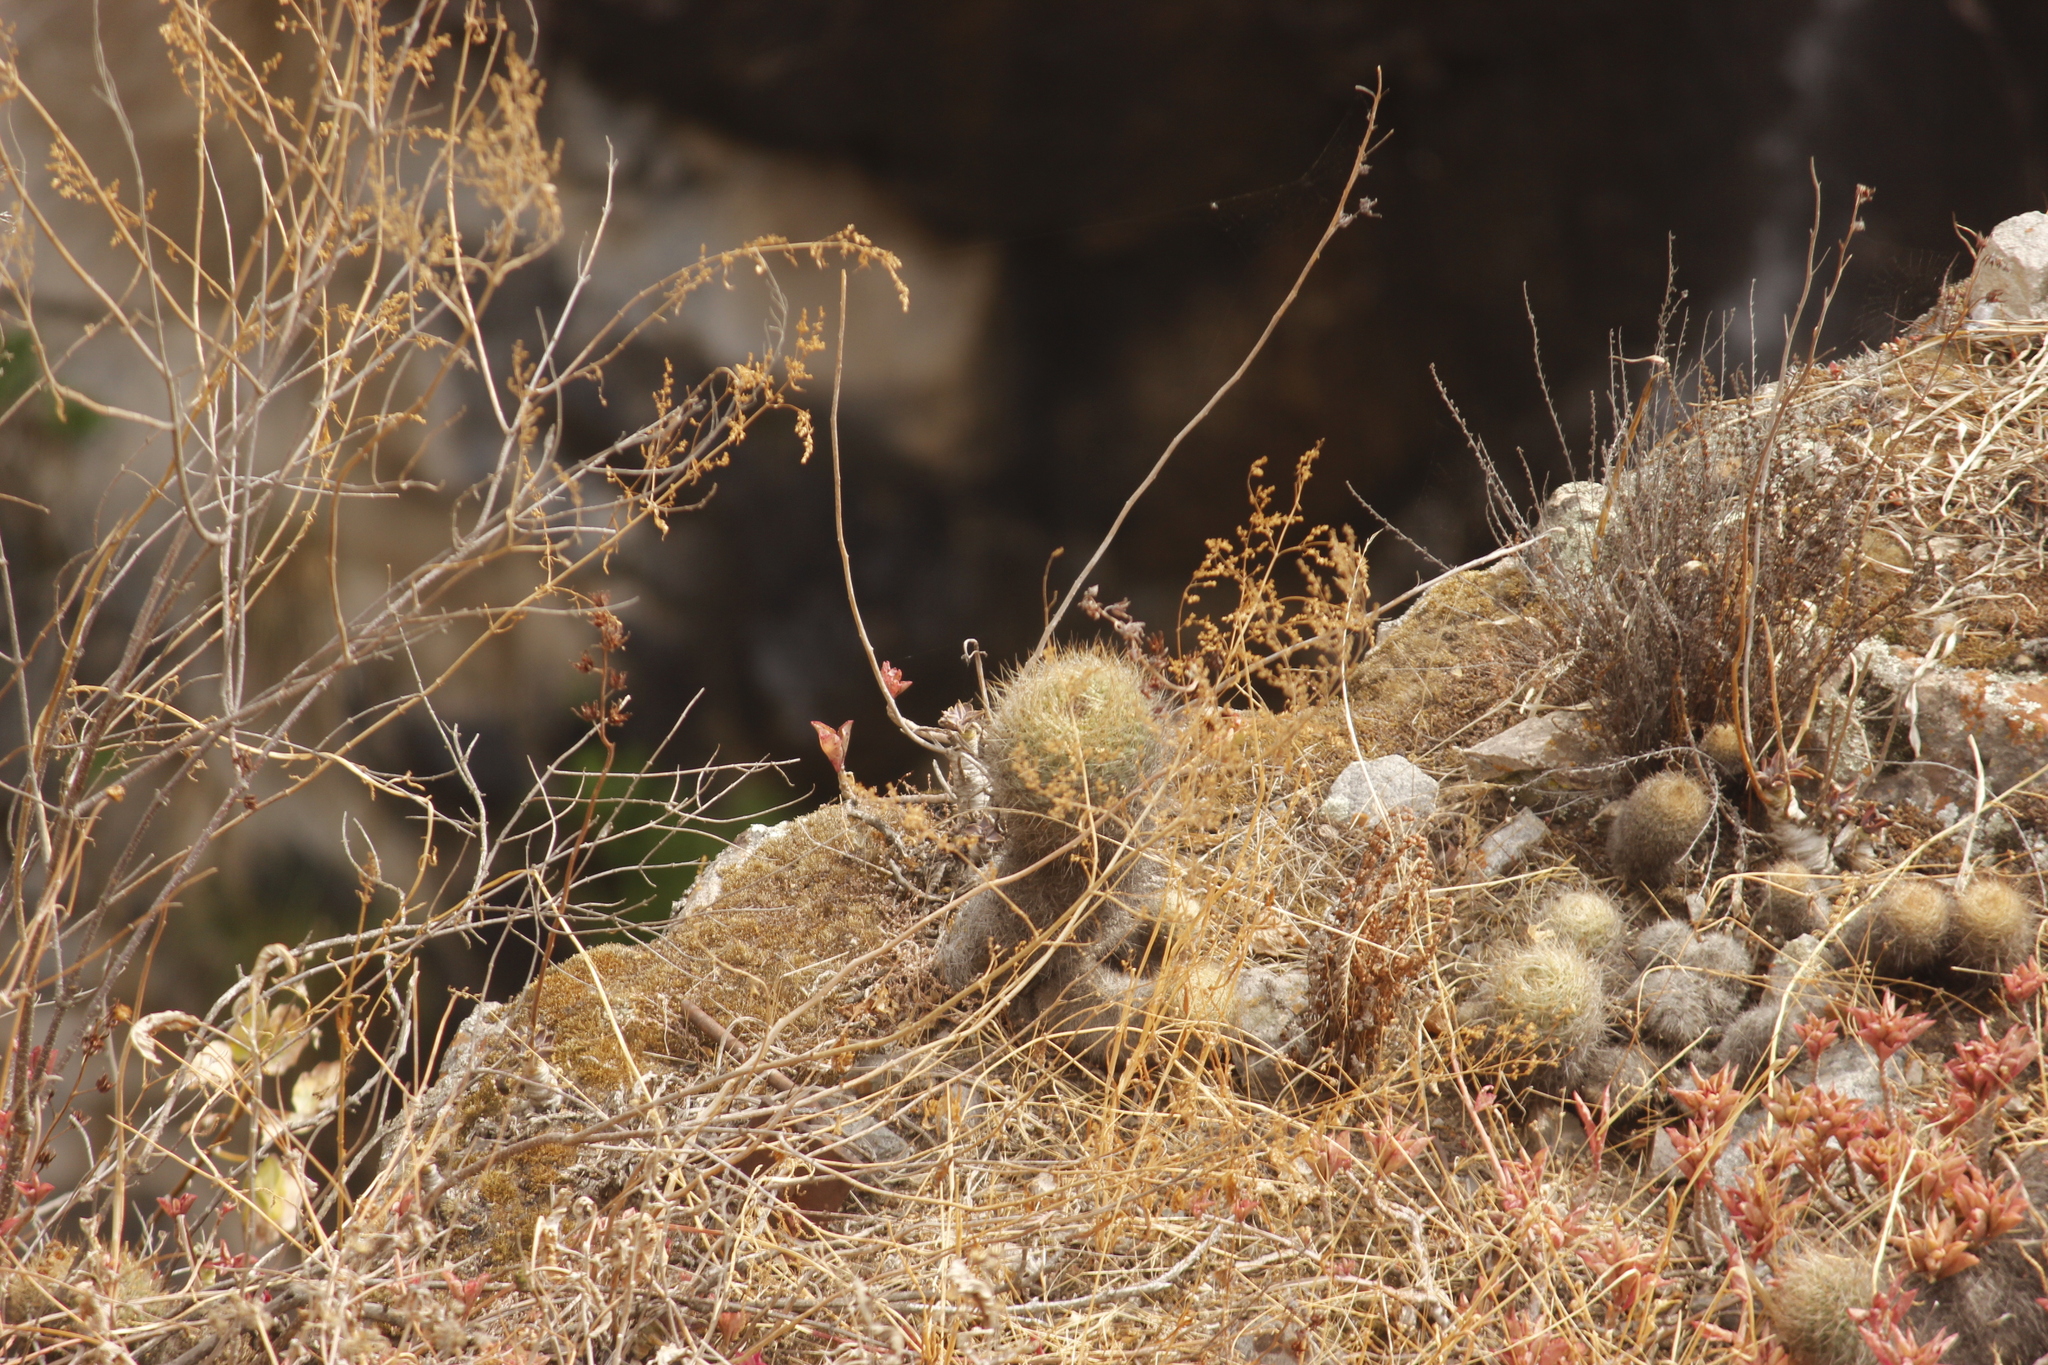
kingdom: Plantae
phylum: Tracheophyta
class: Magnoliopsida
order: Caryophyllales
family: Cactaceae
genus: Matucana
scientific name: Matucana haynii
